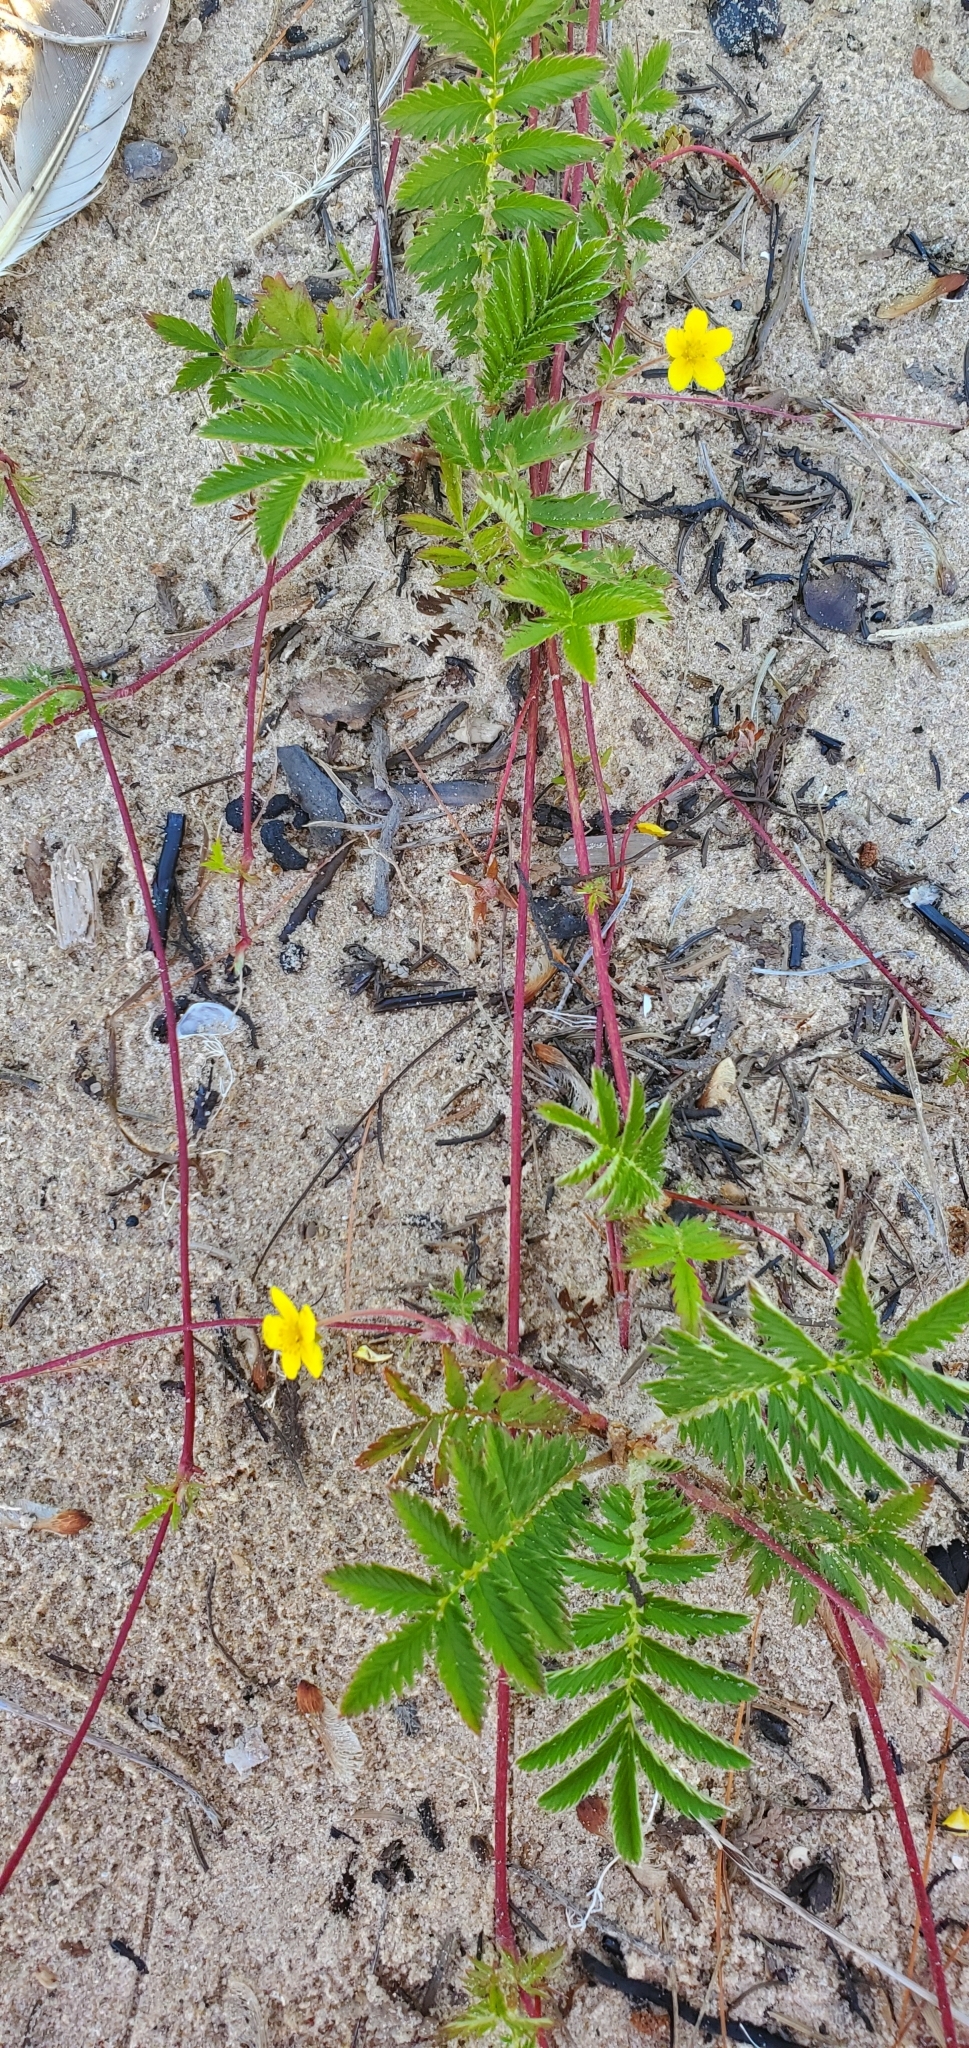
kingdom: Plantae
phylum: Tracheophyta
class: Magnoliopsida
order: Rosales
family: Rosaceae
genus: Argentina
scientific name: Argentina anserina
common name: Common silverweed
